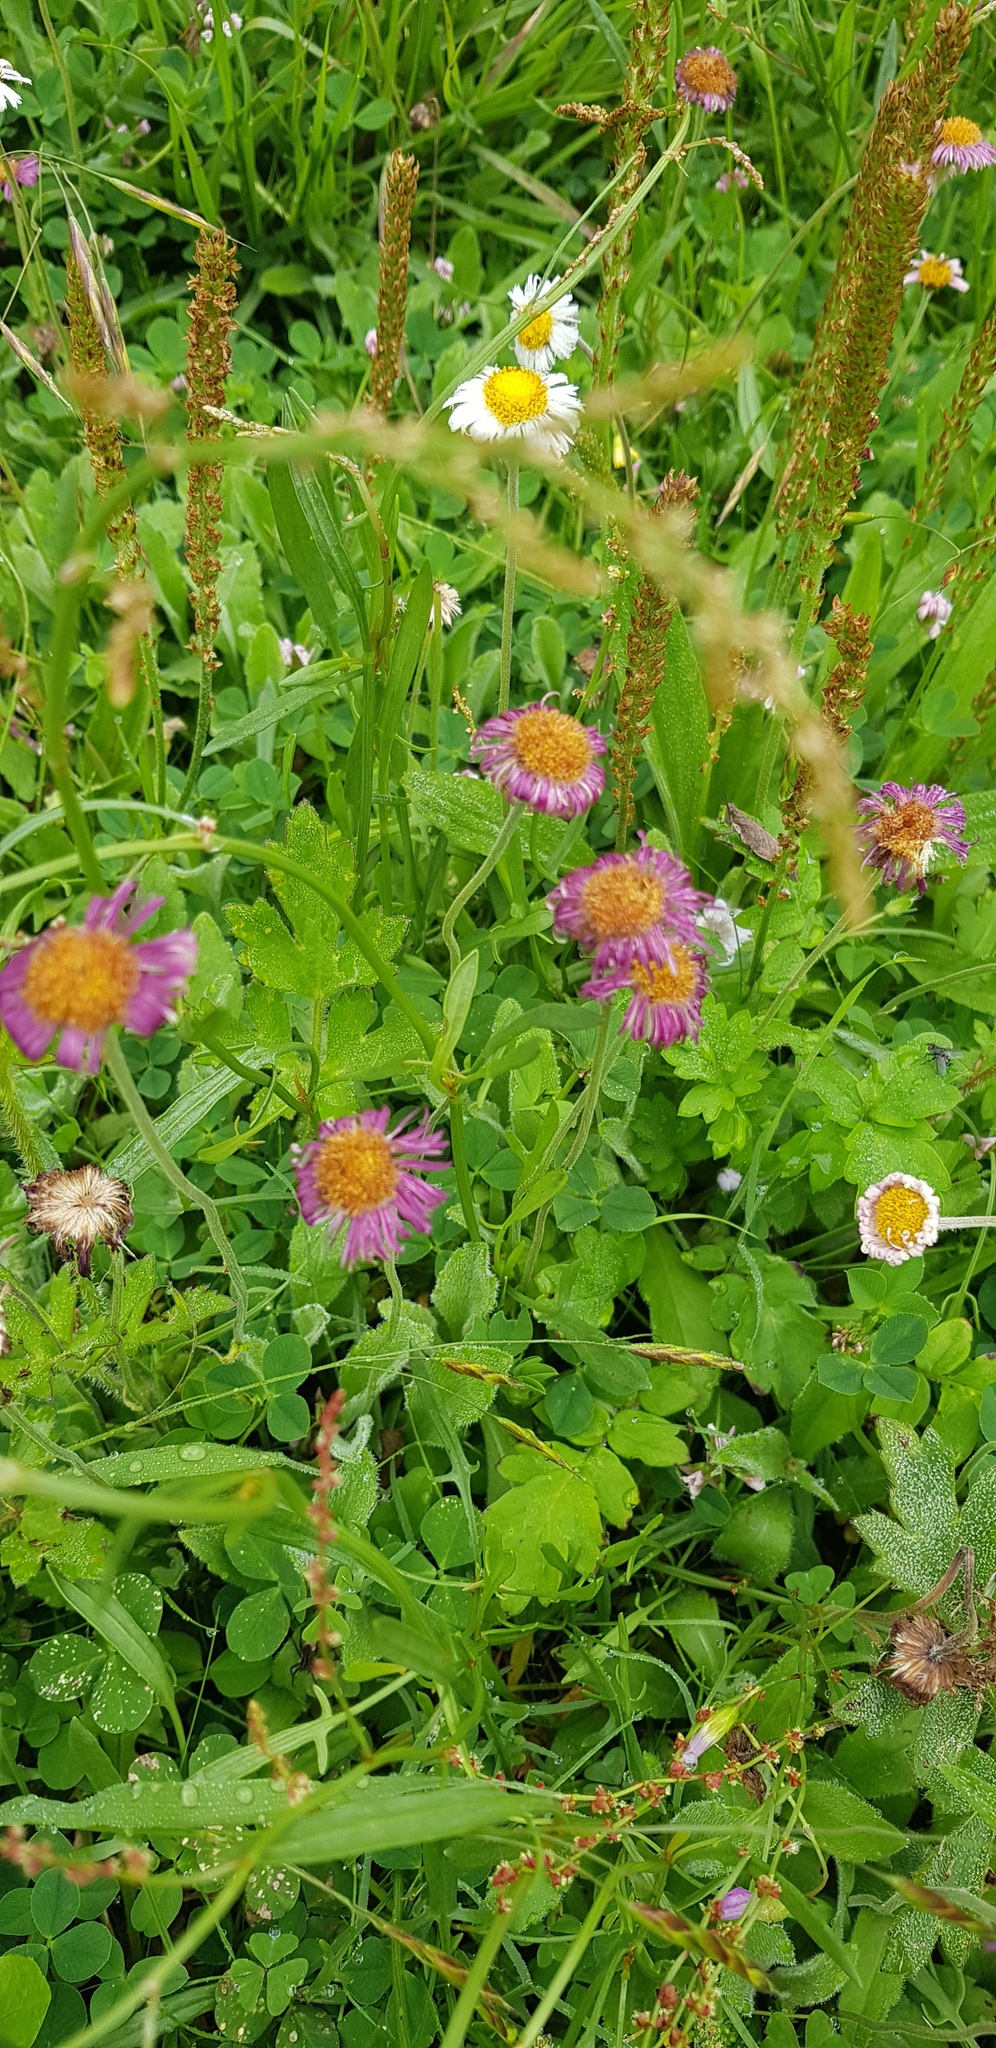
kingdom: Plantae
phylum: Tracheophyta
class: Magnoliopsida
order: Asterales
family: Asteraceae
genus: Erigeron
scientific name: Erigeron karvinskianus
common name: Mexican fleabane
